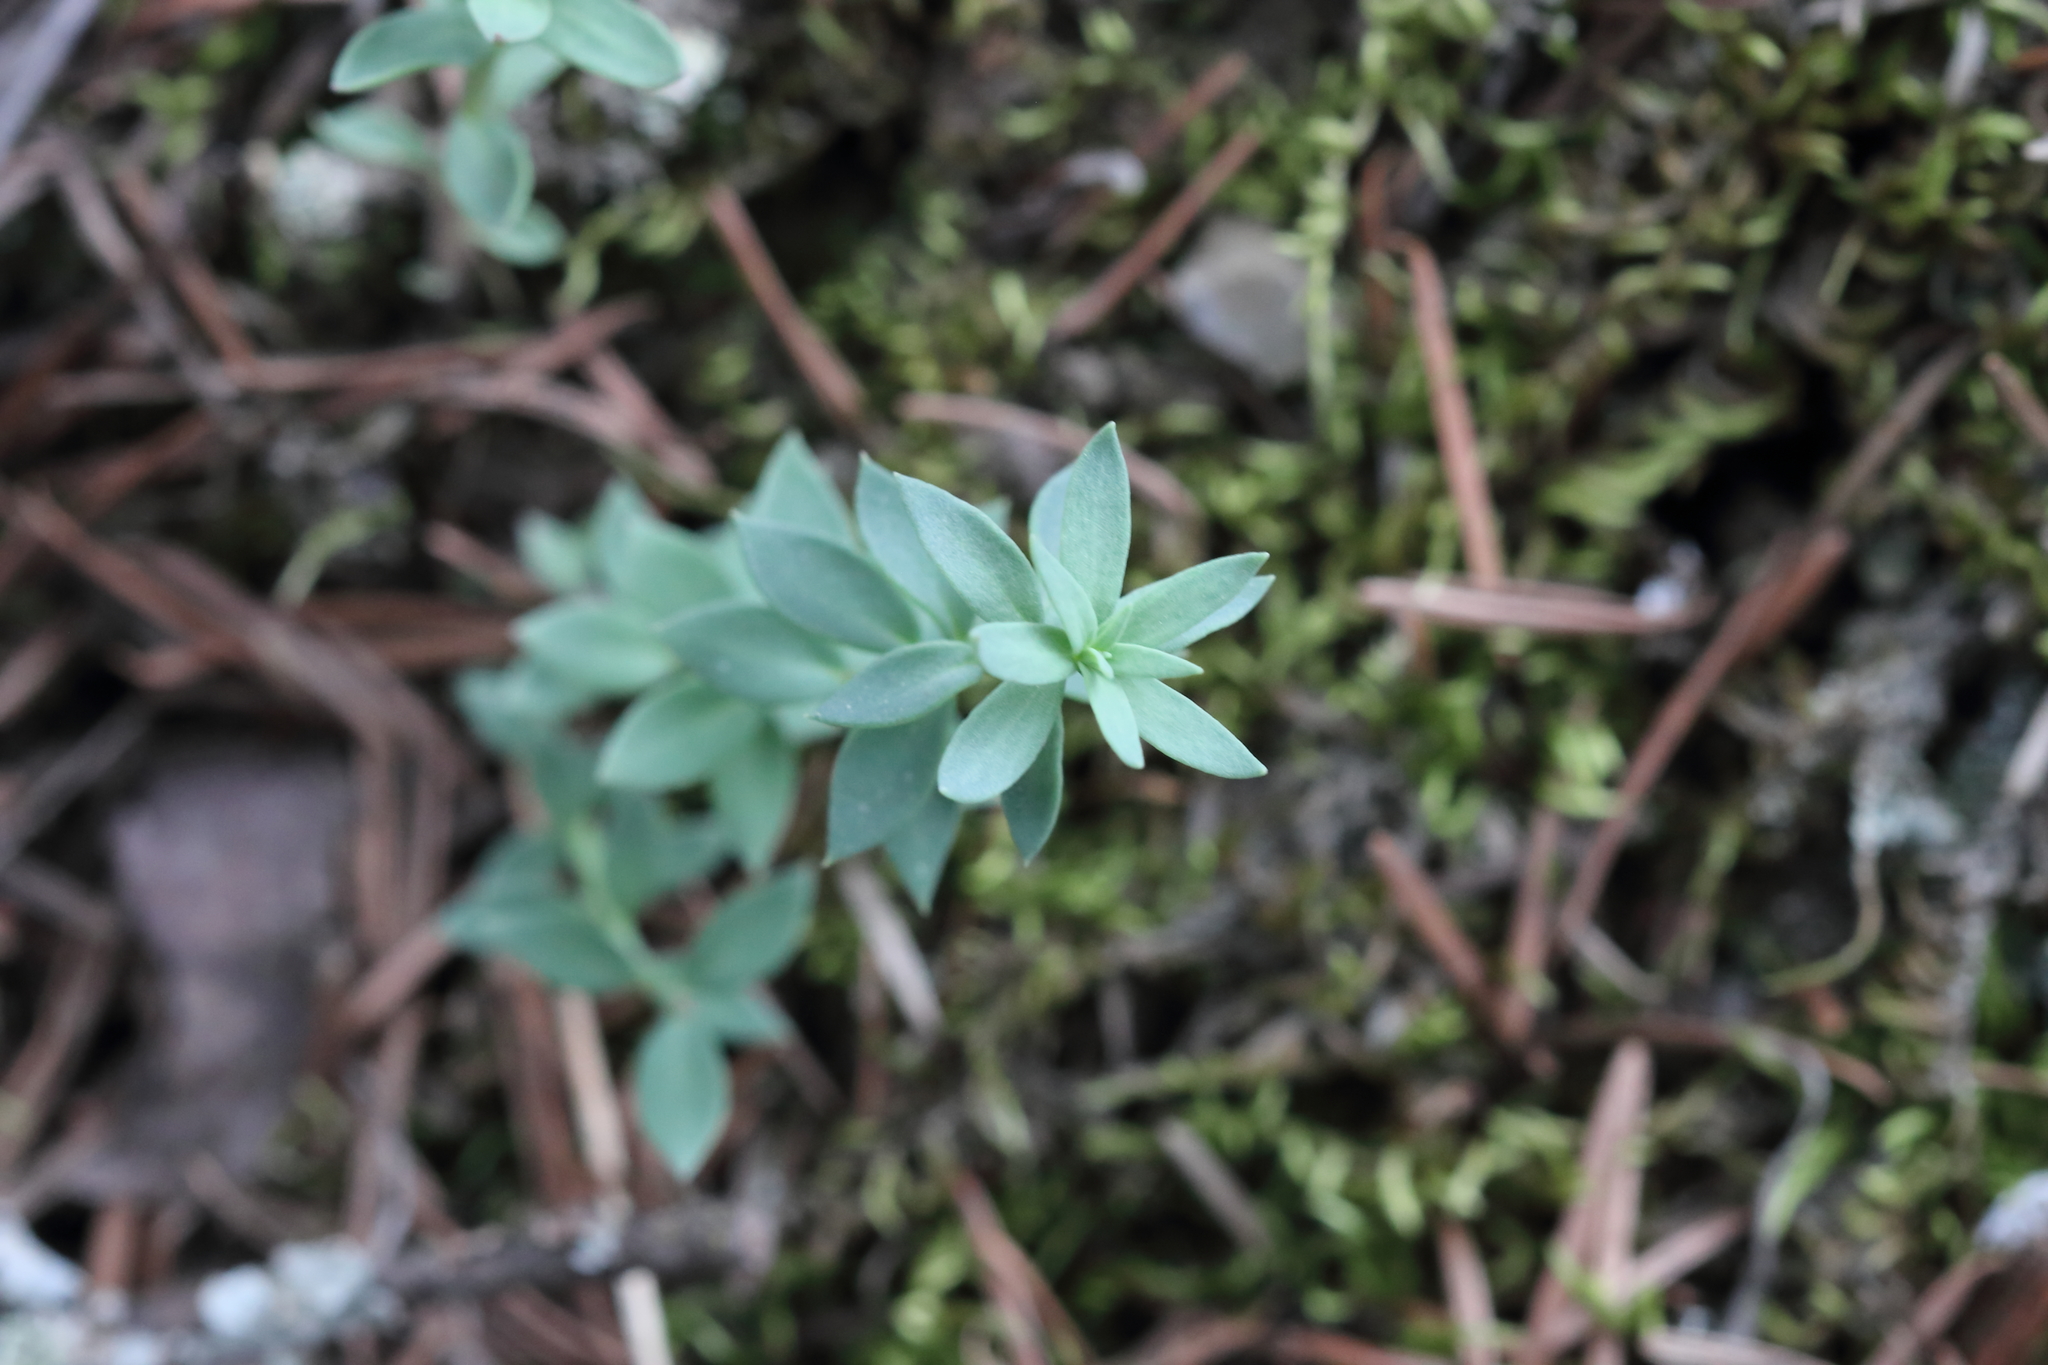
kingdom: Plantae
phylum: Tracheophyta
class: Magnoliopsida
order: Lamiales
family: Plantaginaceae
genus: Linaria
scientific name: Linaria dalmatica
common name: Dalmatian toadflax
